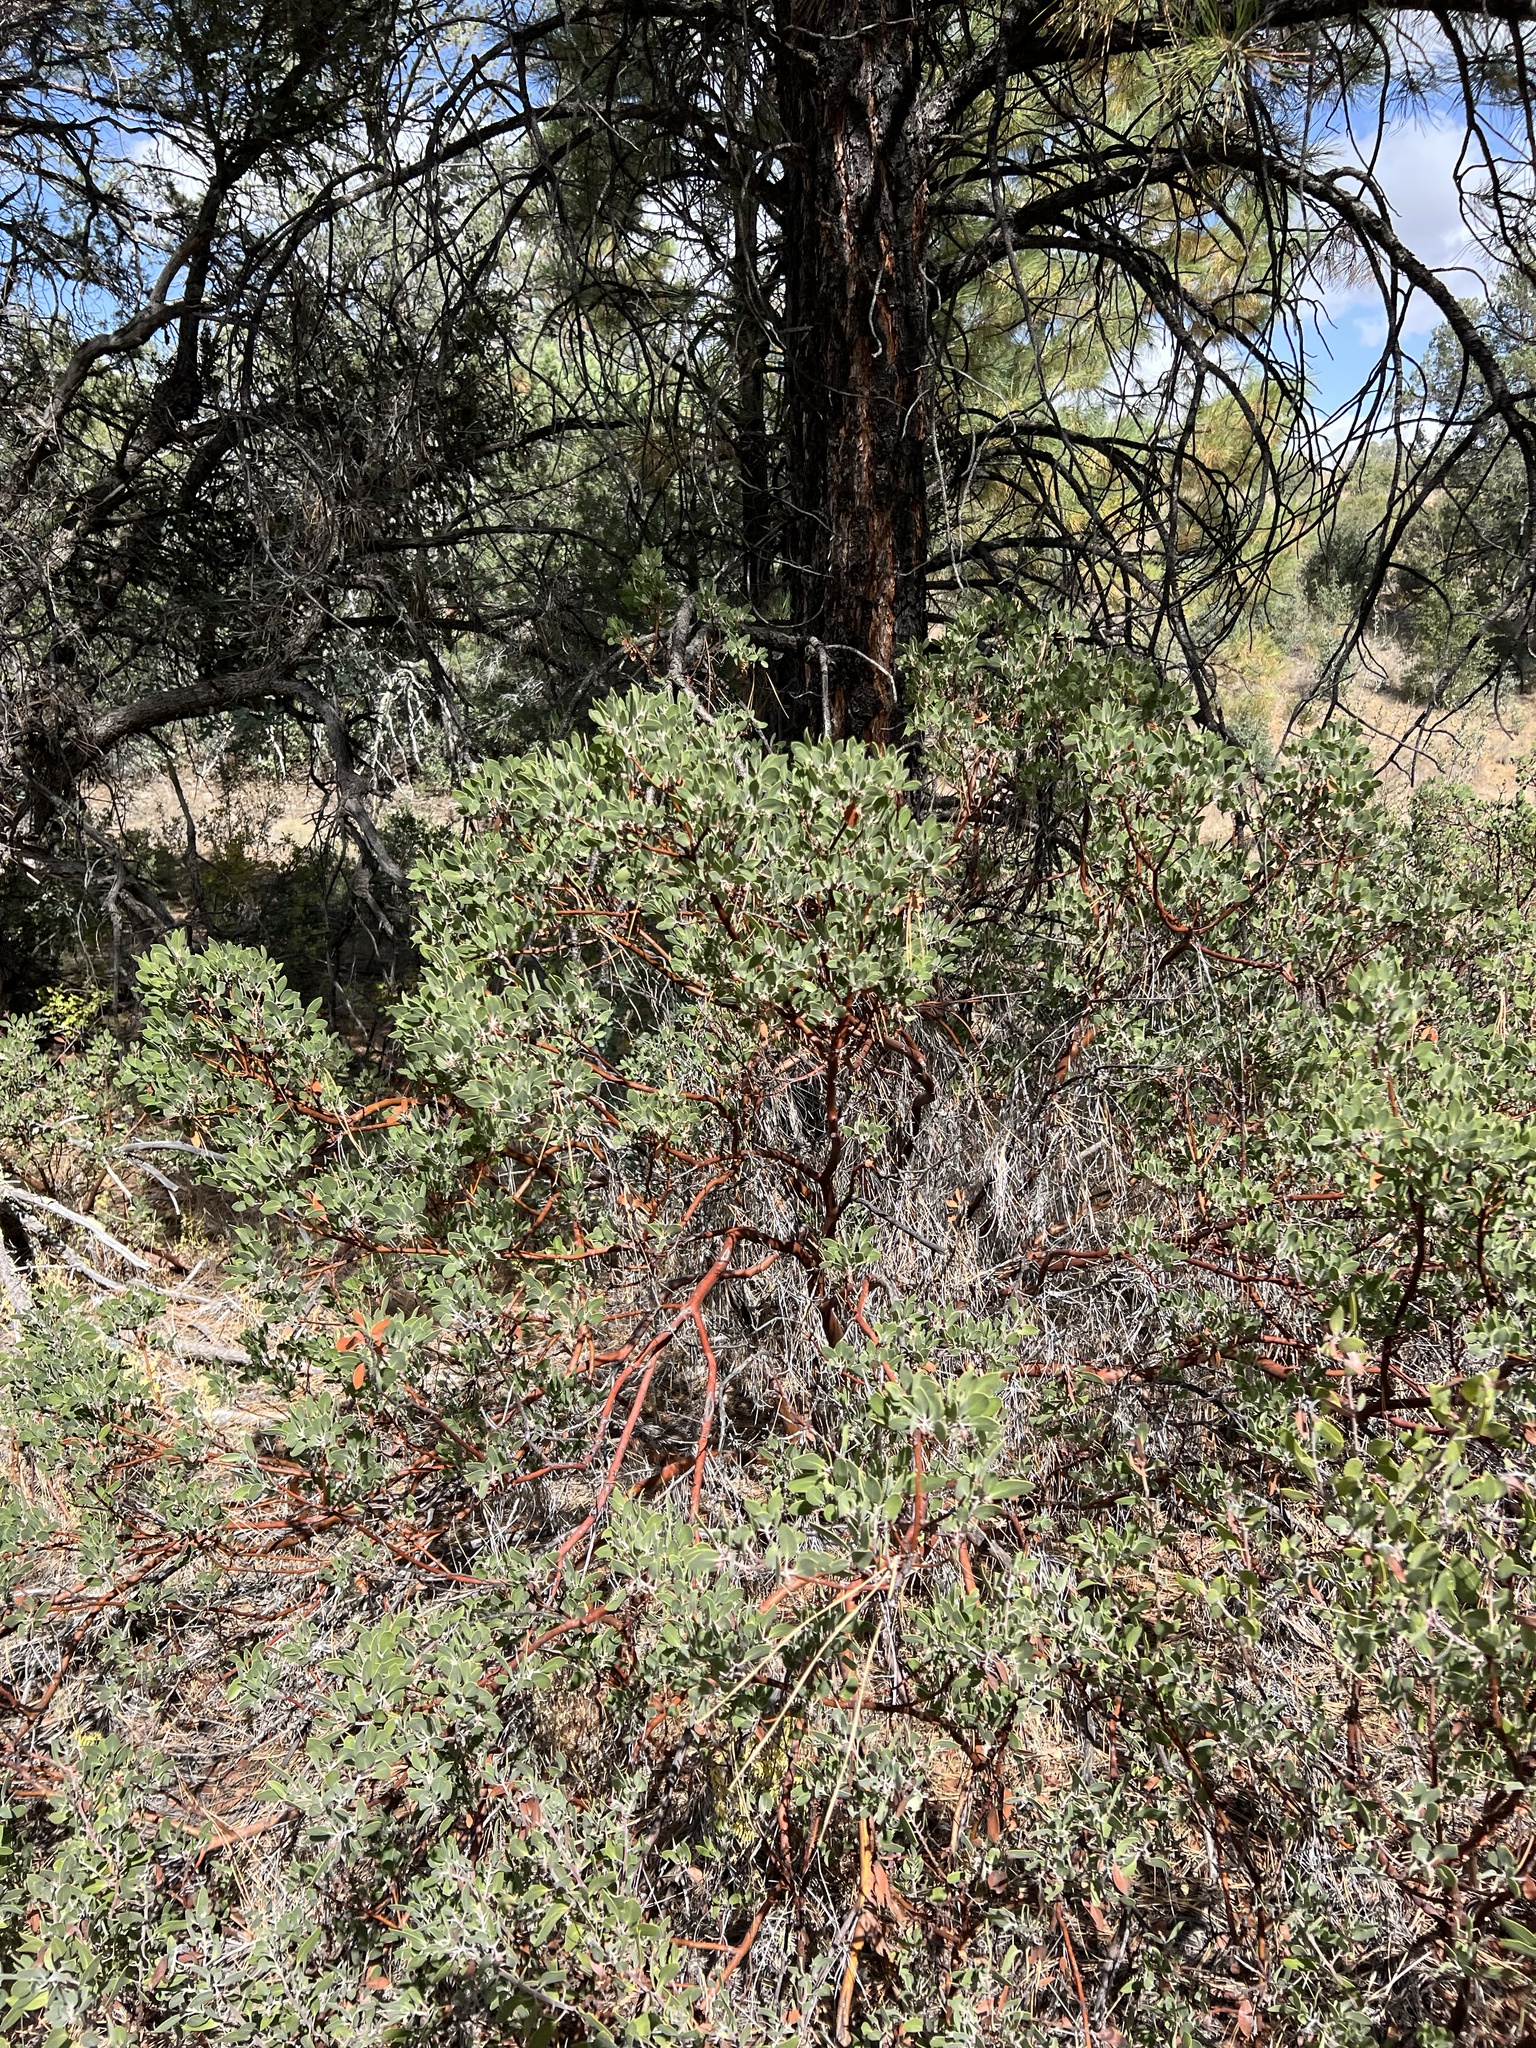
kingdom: Plantae
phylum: Tracheophyta
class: Magnoliopsida
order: Ericales
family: Ericaceae
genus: Arctostaphylos
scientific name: Arctostaphylos pungens
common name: Mexican manzanita
